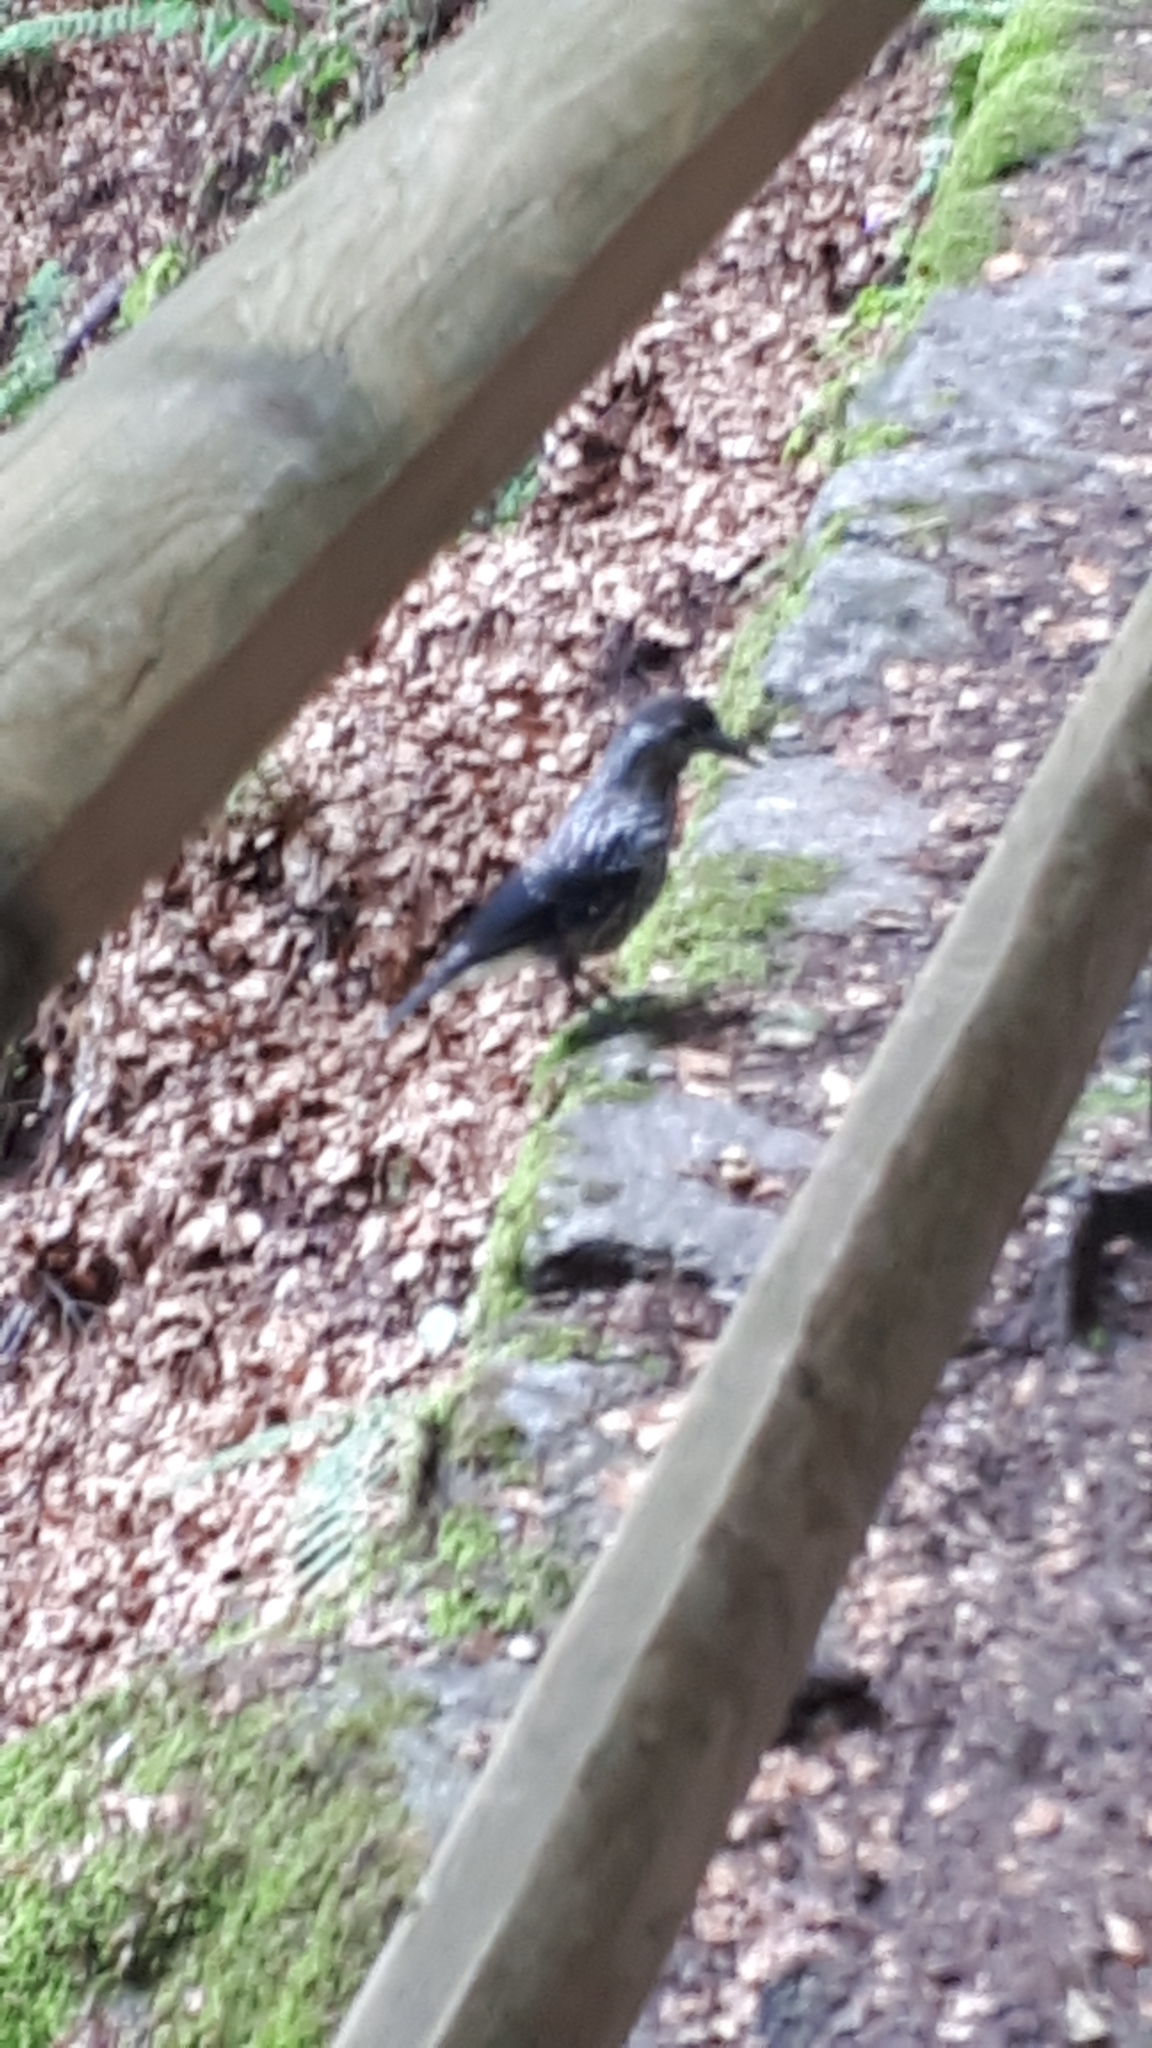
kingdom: Animalia
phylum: Chordata
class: Aves
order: Passeriformes
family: Corvidae
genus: Nucifraga
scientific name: Nucifraga caryocatactes
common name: Spotted nutcracker
